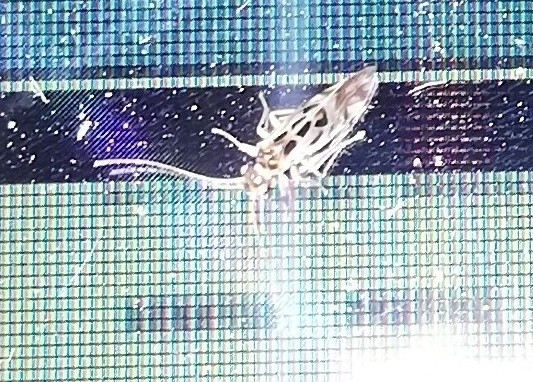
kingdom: Animalia
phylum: Arthropoda
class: Insecta
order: Psocodea
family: Stenopsocidae
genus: Graphopsocus
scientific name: Graphopsocus cruciatus
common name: Lizard bark louse
